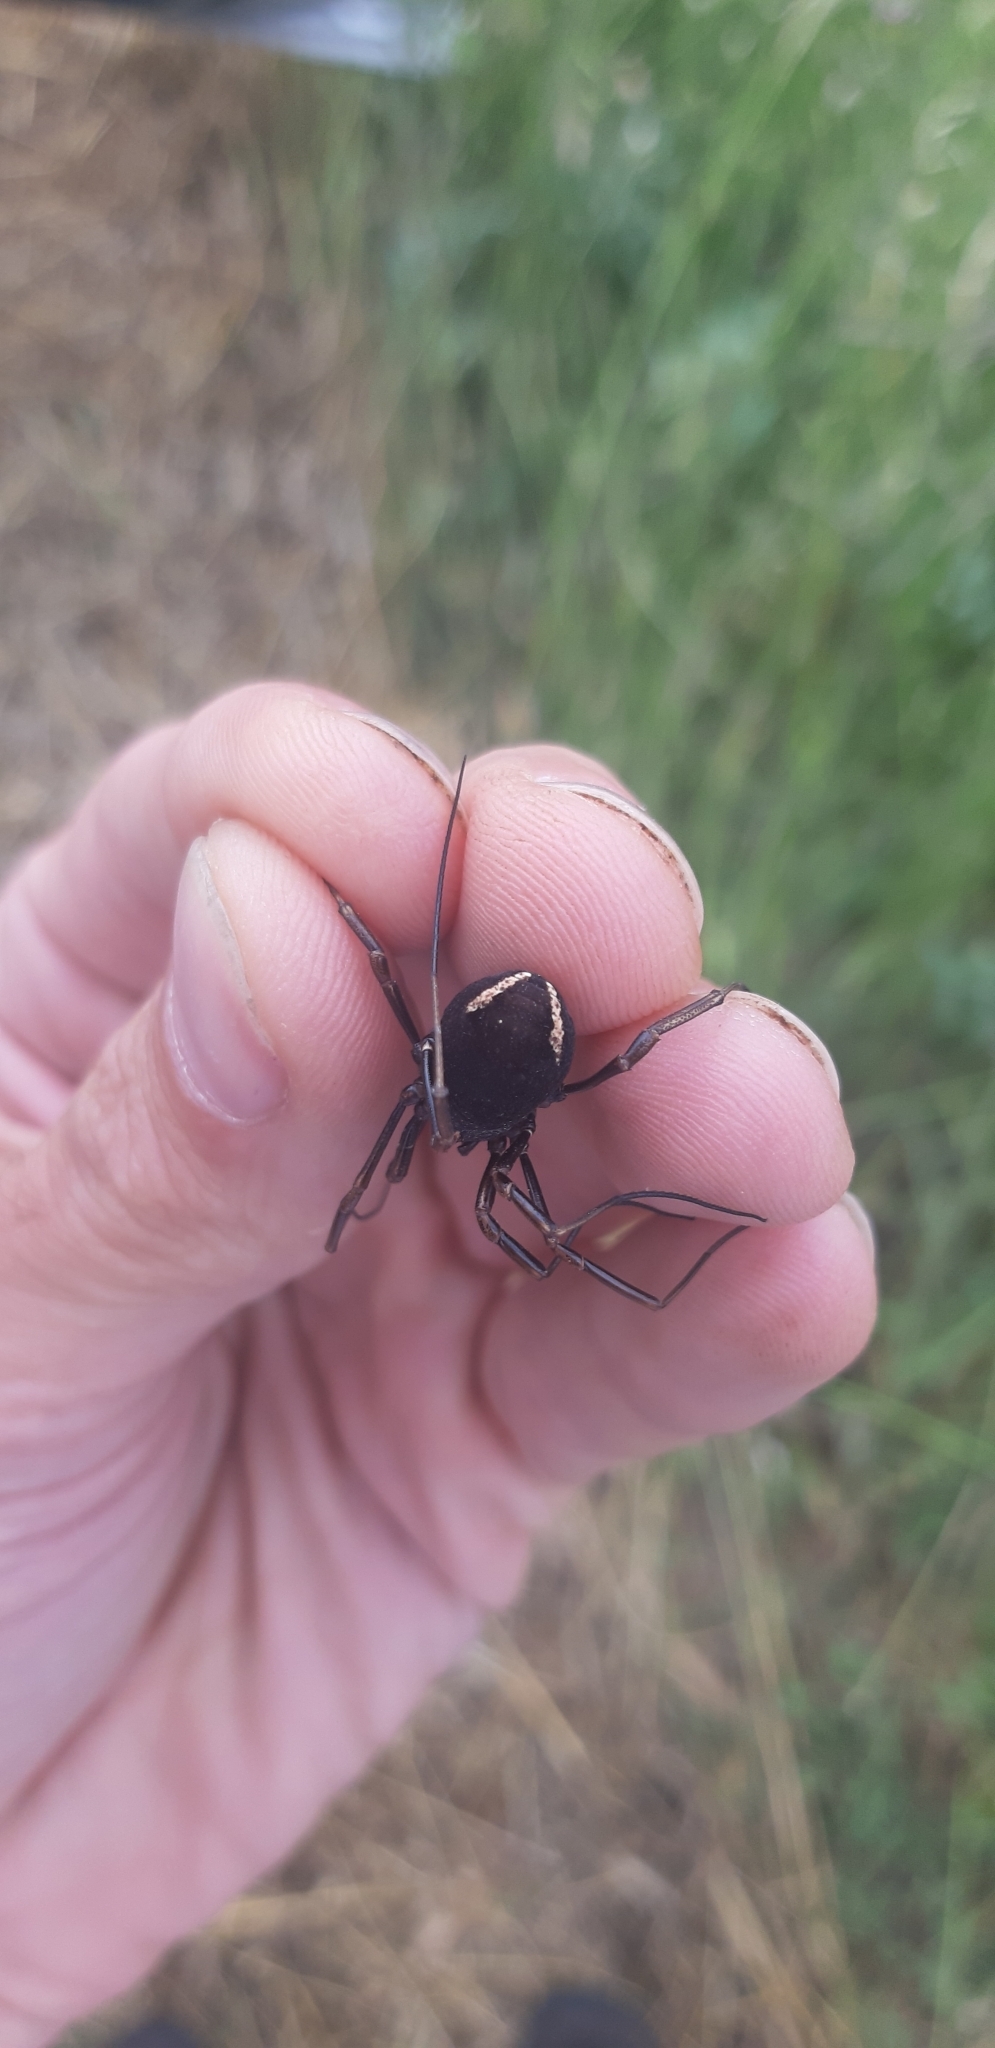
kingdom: Animalia
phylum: Arthropoda
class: Arachnida
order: Opiliones
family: Phalangiidae
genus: Zachaeus
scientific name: Zachaeus crista
